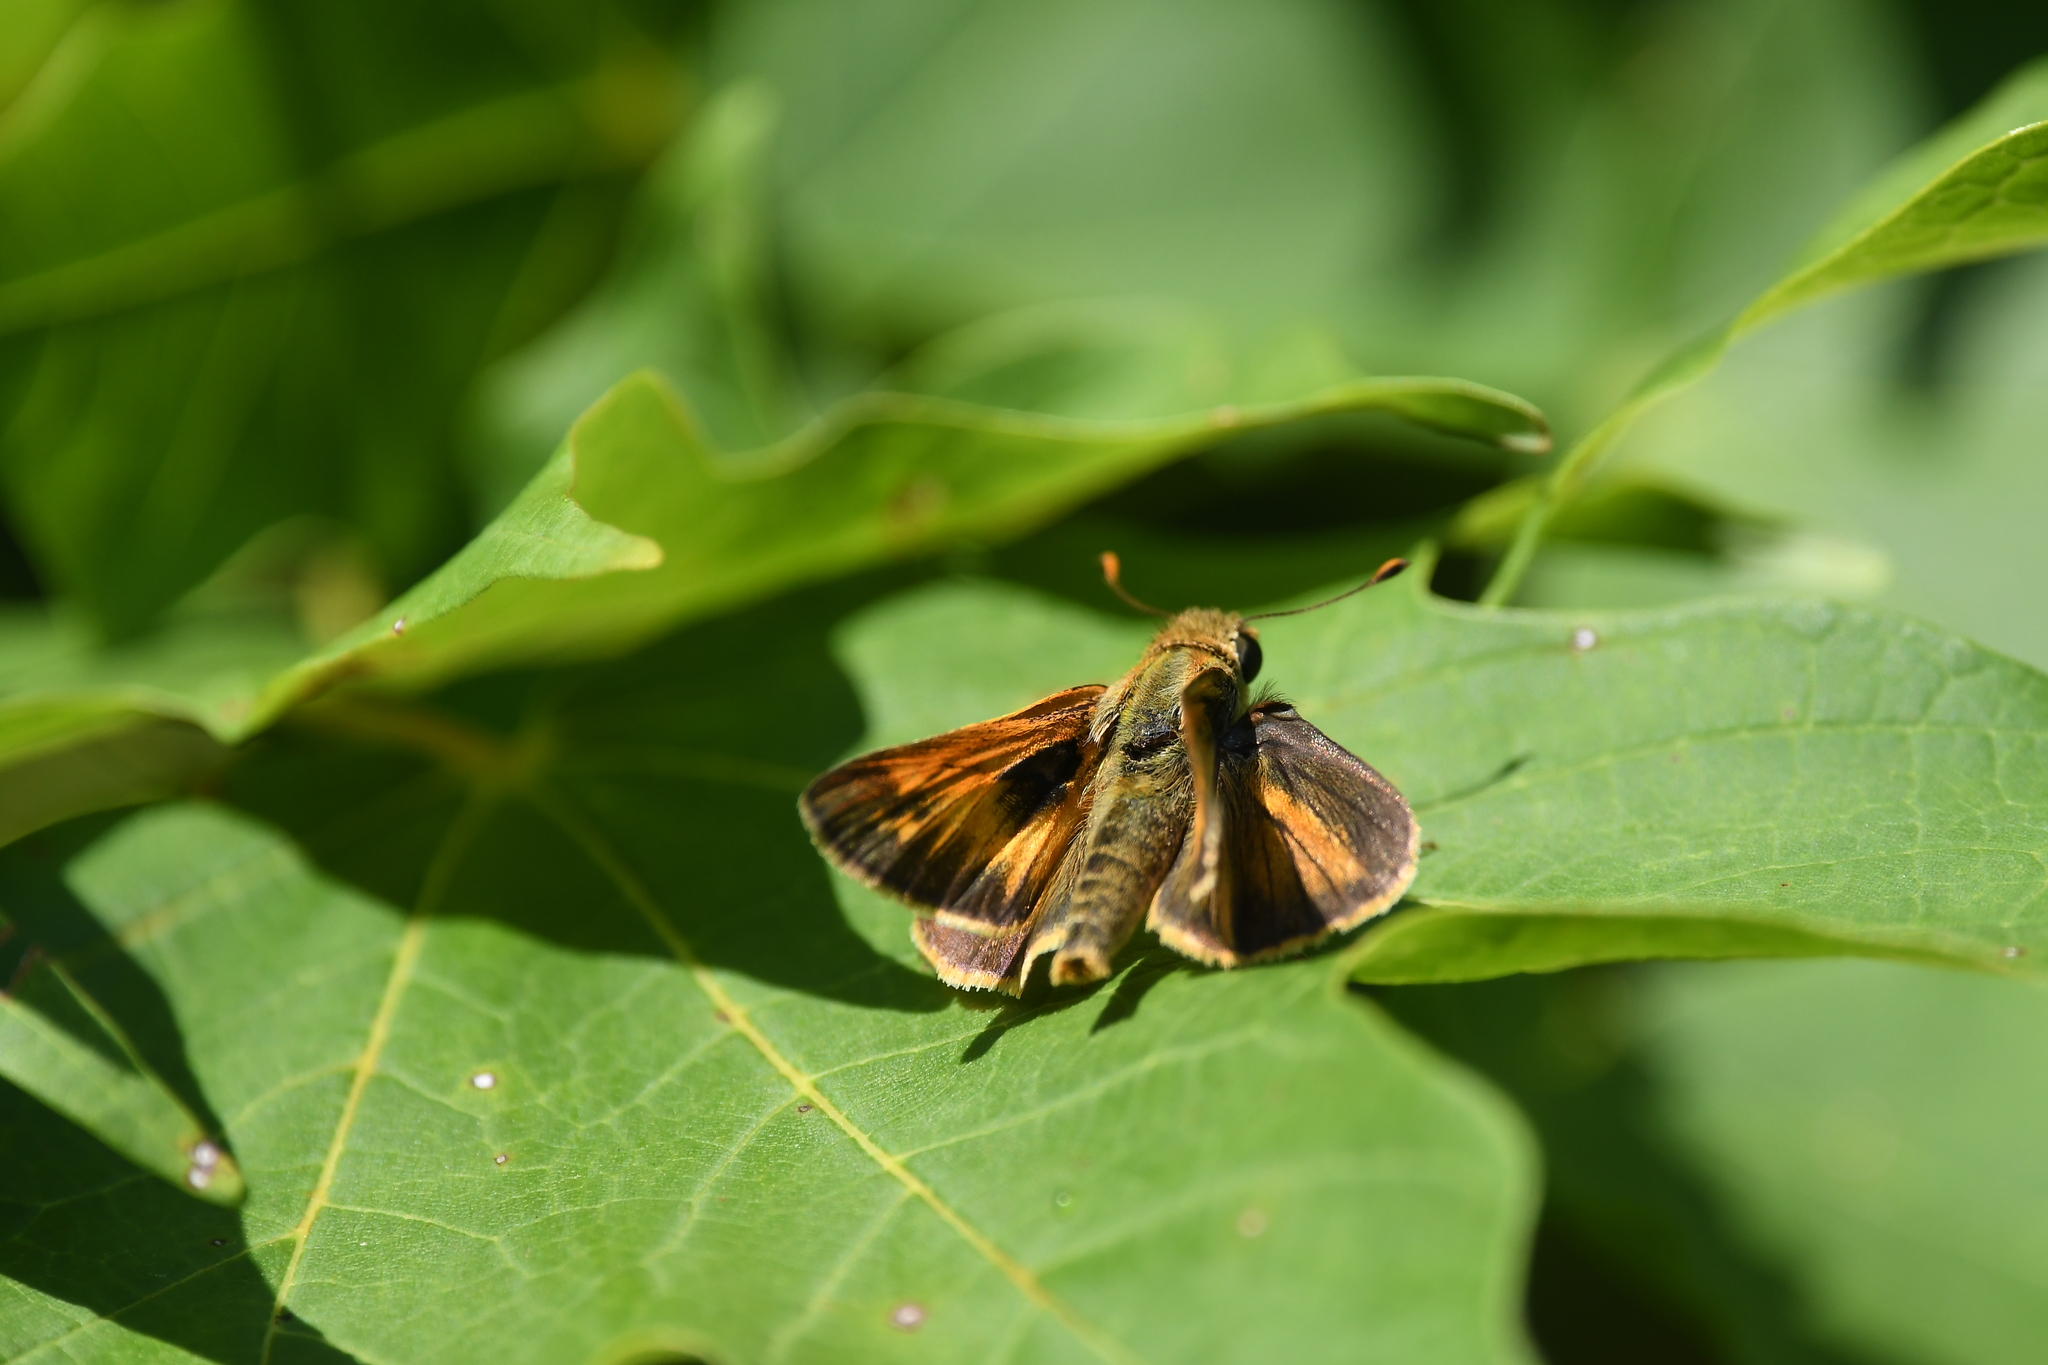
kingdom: Animalia
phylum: Arthropoda
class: Insecta
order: Lepidoptera
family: Hesperiidae
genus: Atalopedes
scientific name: Atalopedes
